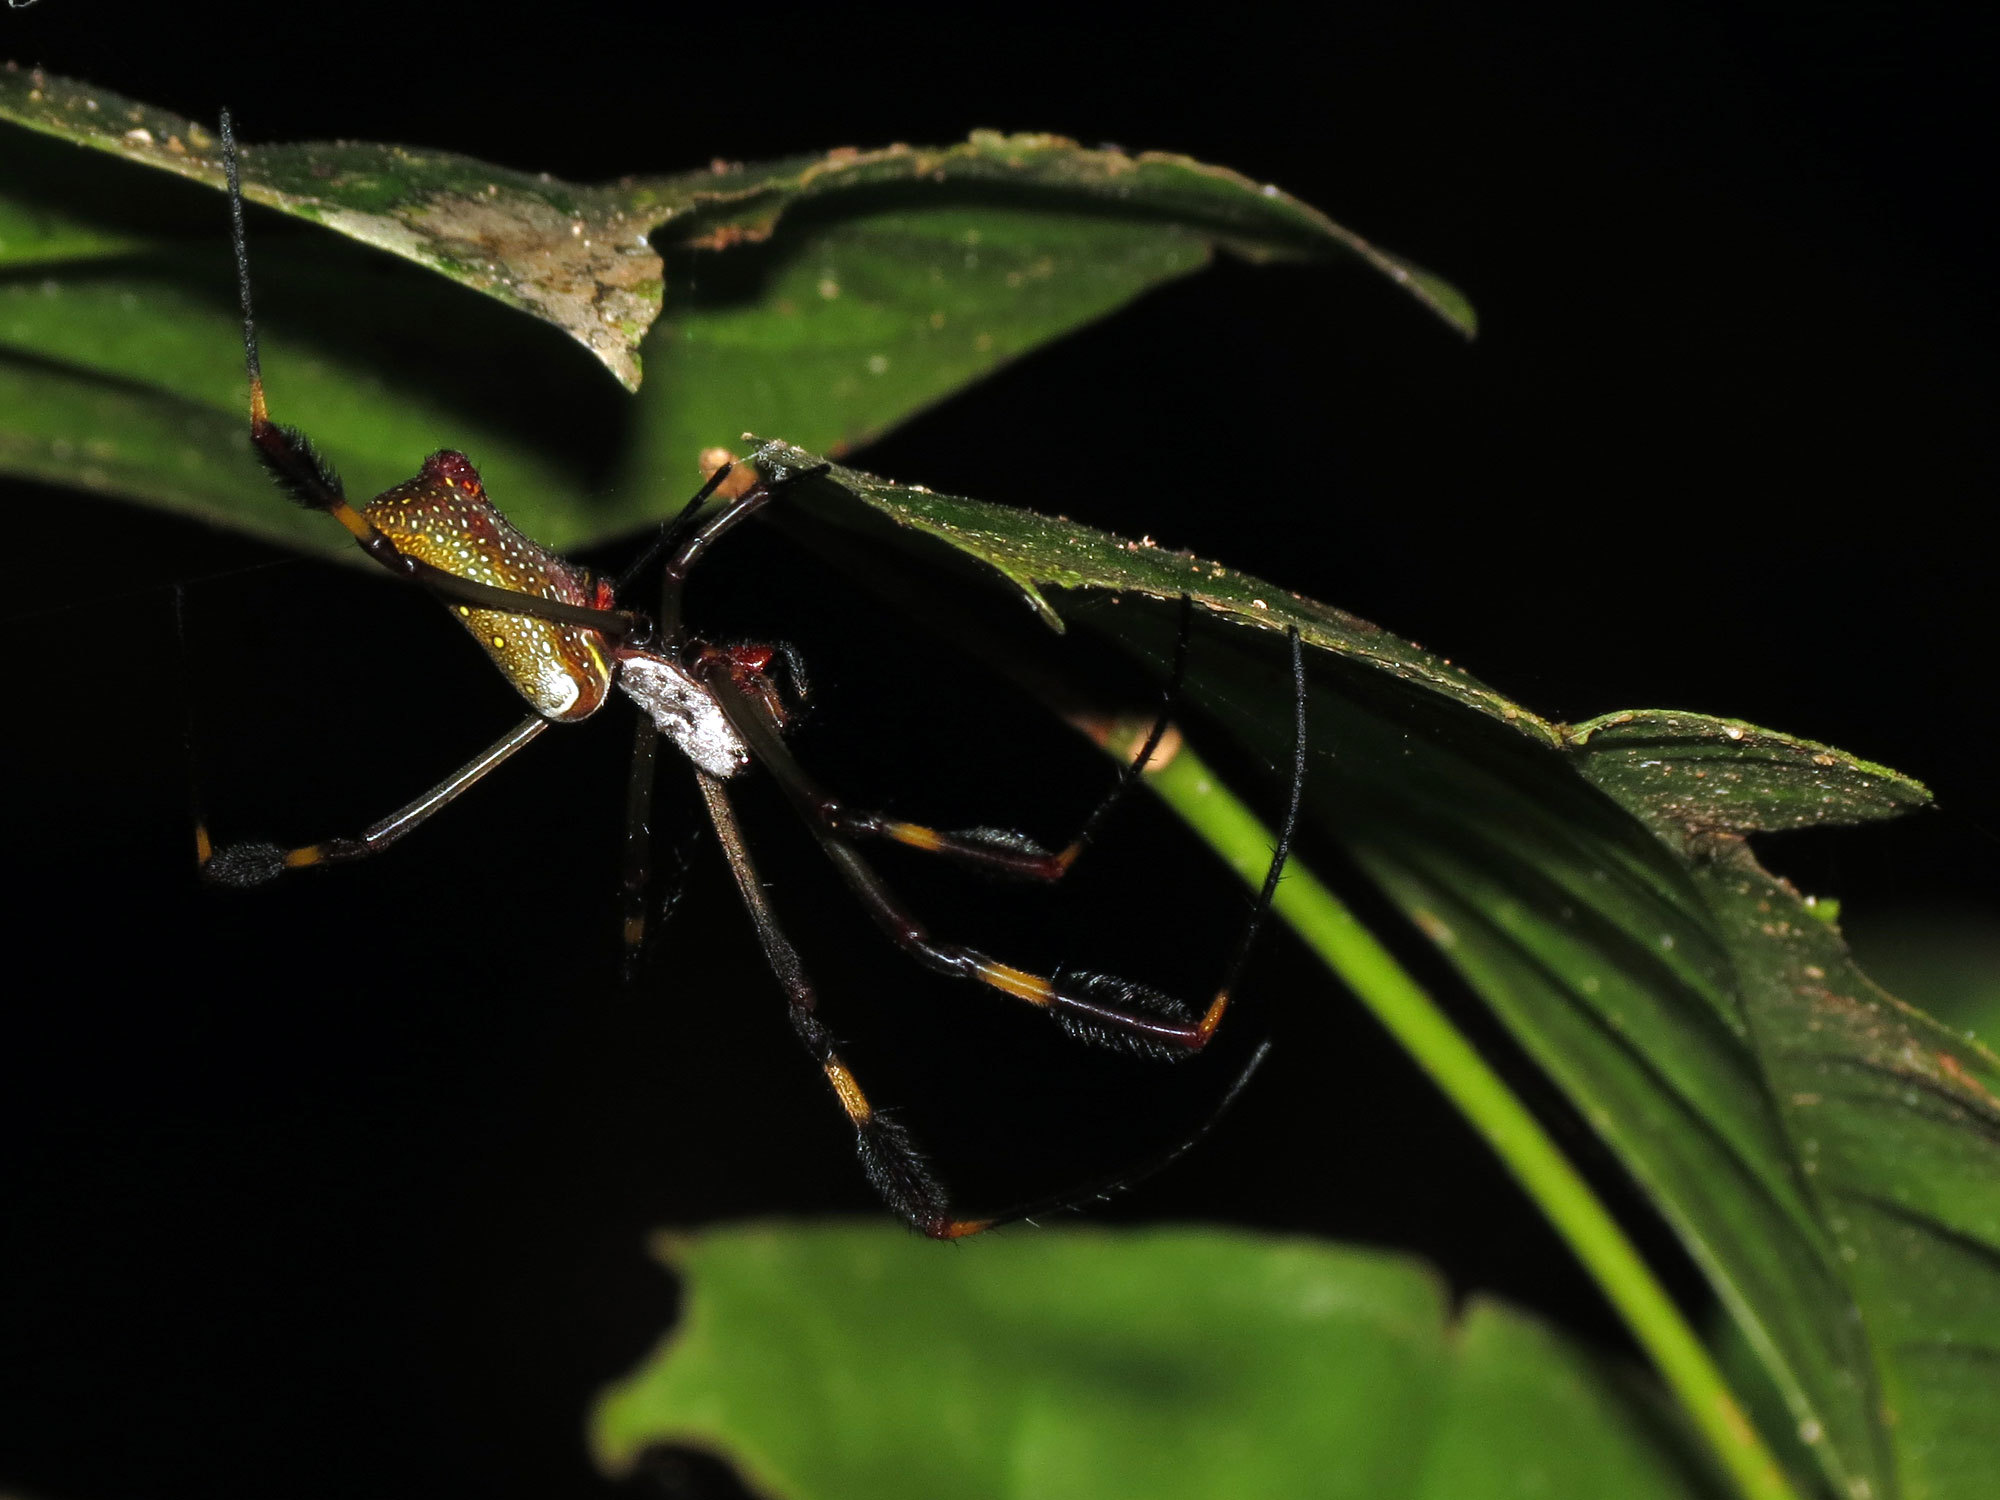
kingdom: Animalia
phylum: Arthropoda
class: Arachnida
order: Araneae
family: Araneidae
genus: Trichonephila
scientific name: Trichonephila clavipes
